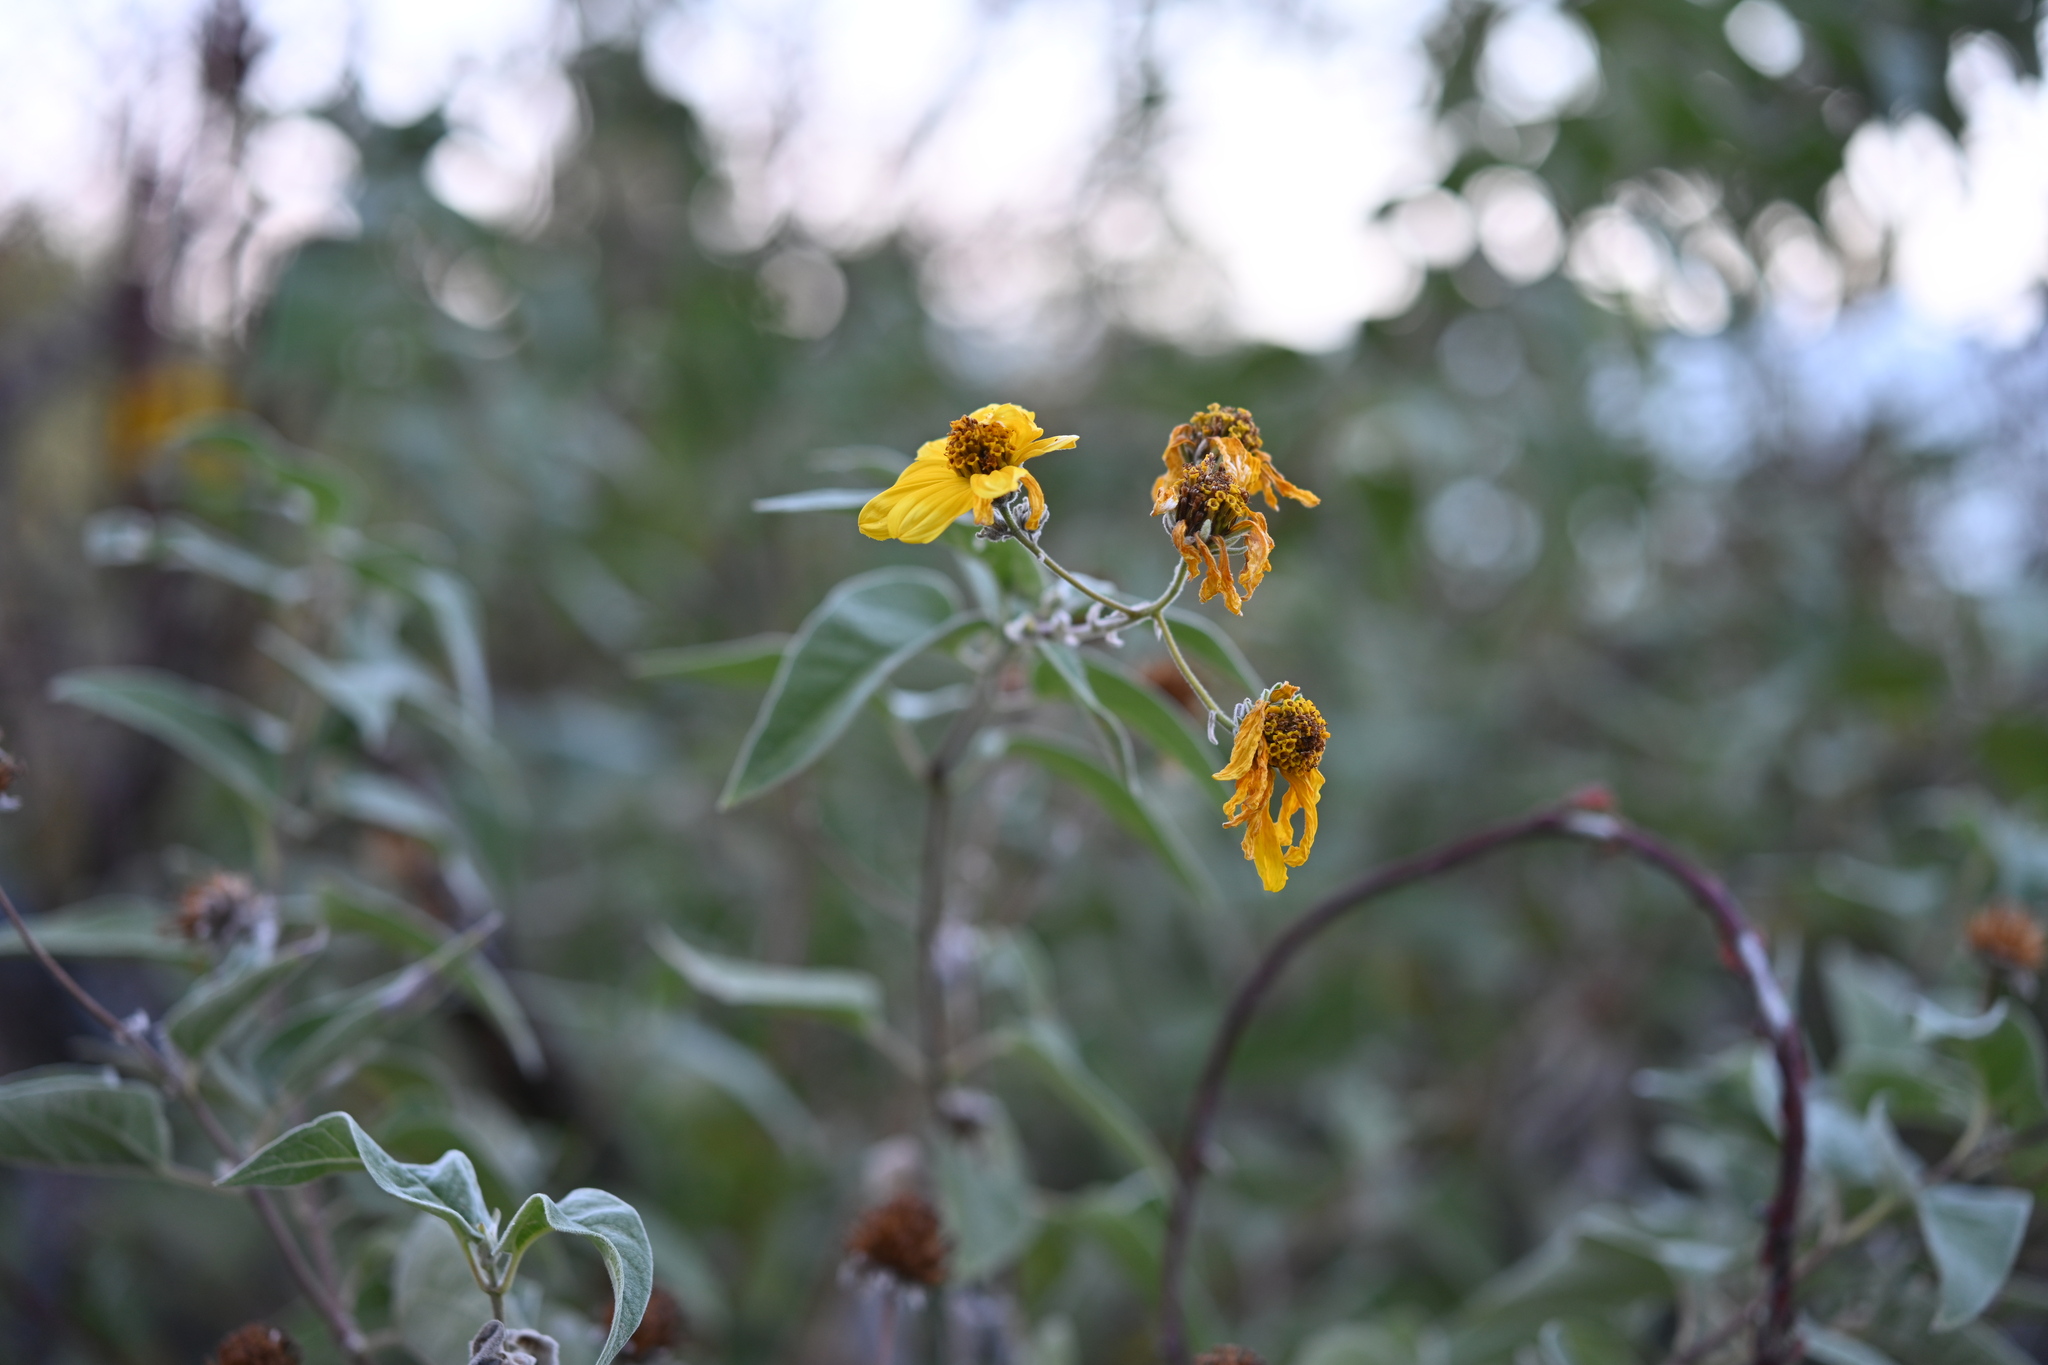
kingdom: Plantae
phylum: Tracheophyta
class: Magnoliopsida
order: Asterales
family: Asteraceae
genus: Bahiopsis
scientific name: Bahiopsis tomentosa
